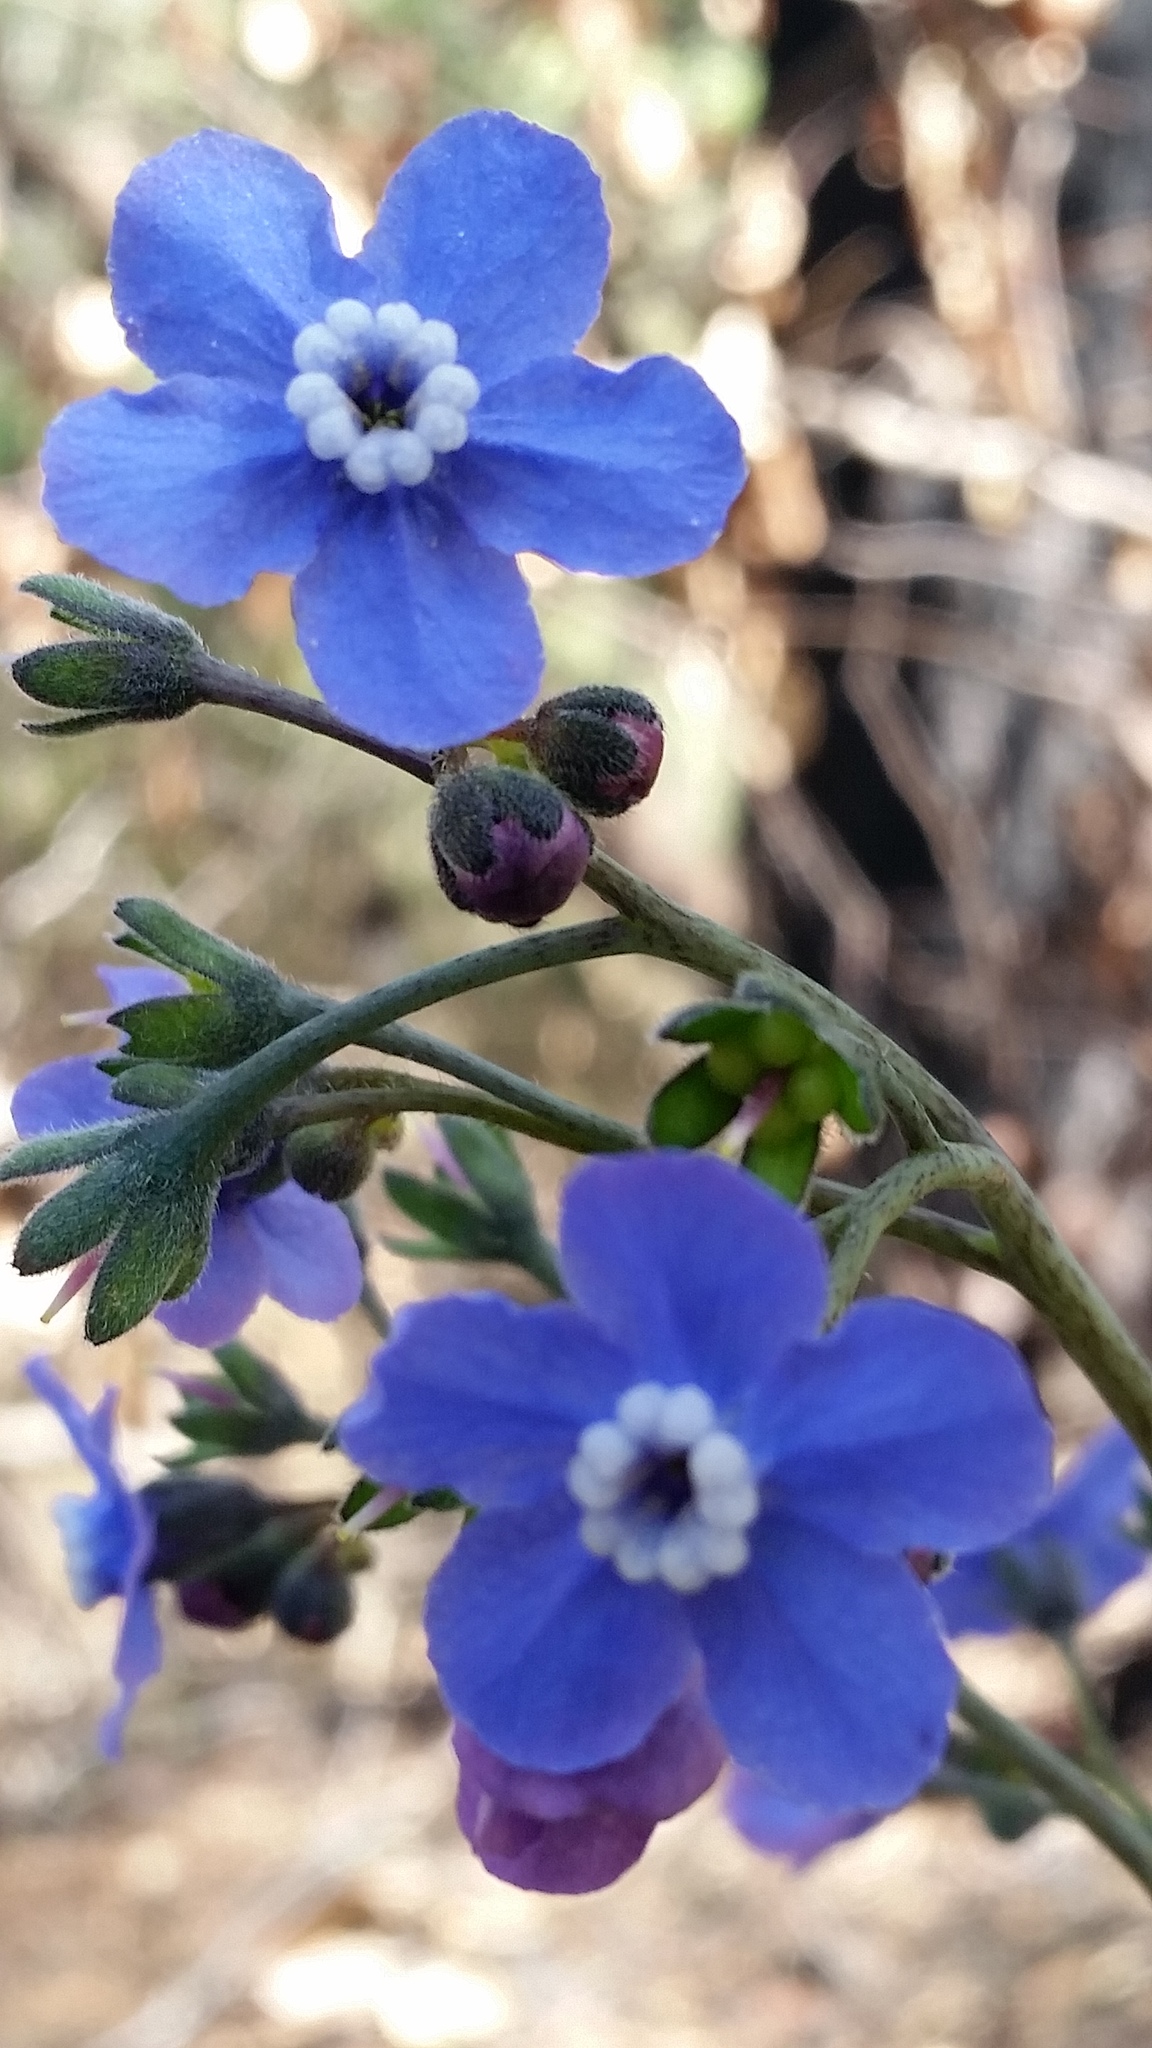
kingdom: Plantae
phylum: Tracheophyta
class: Magnoliopsida
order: Boraginales
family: Boraginaceae
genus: Adelinia
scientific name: Adelinia grande
